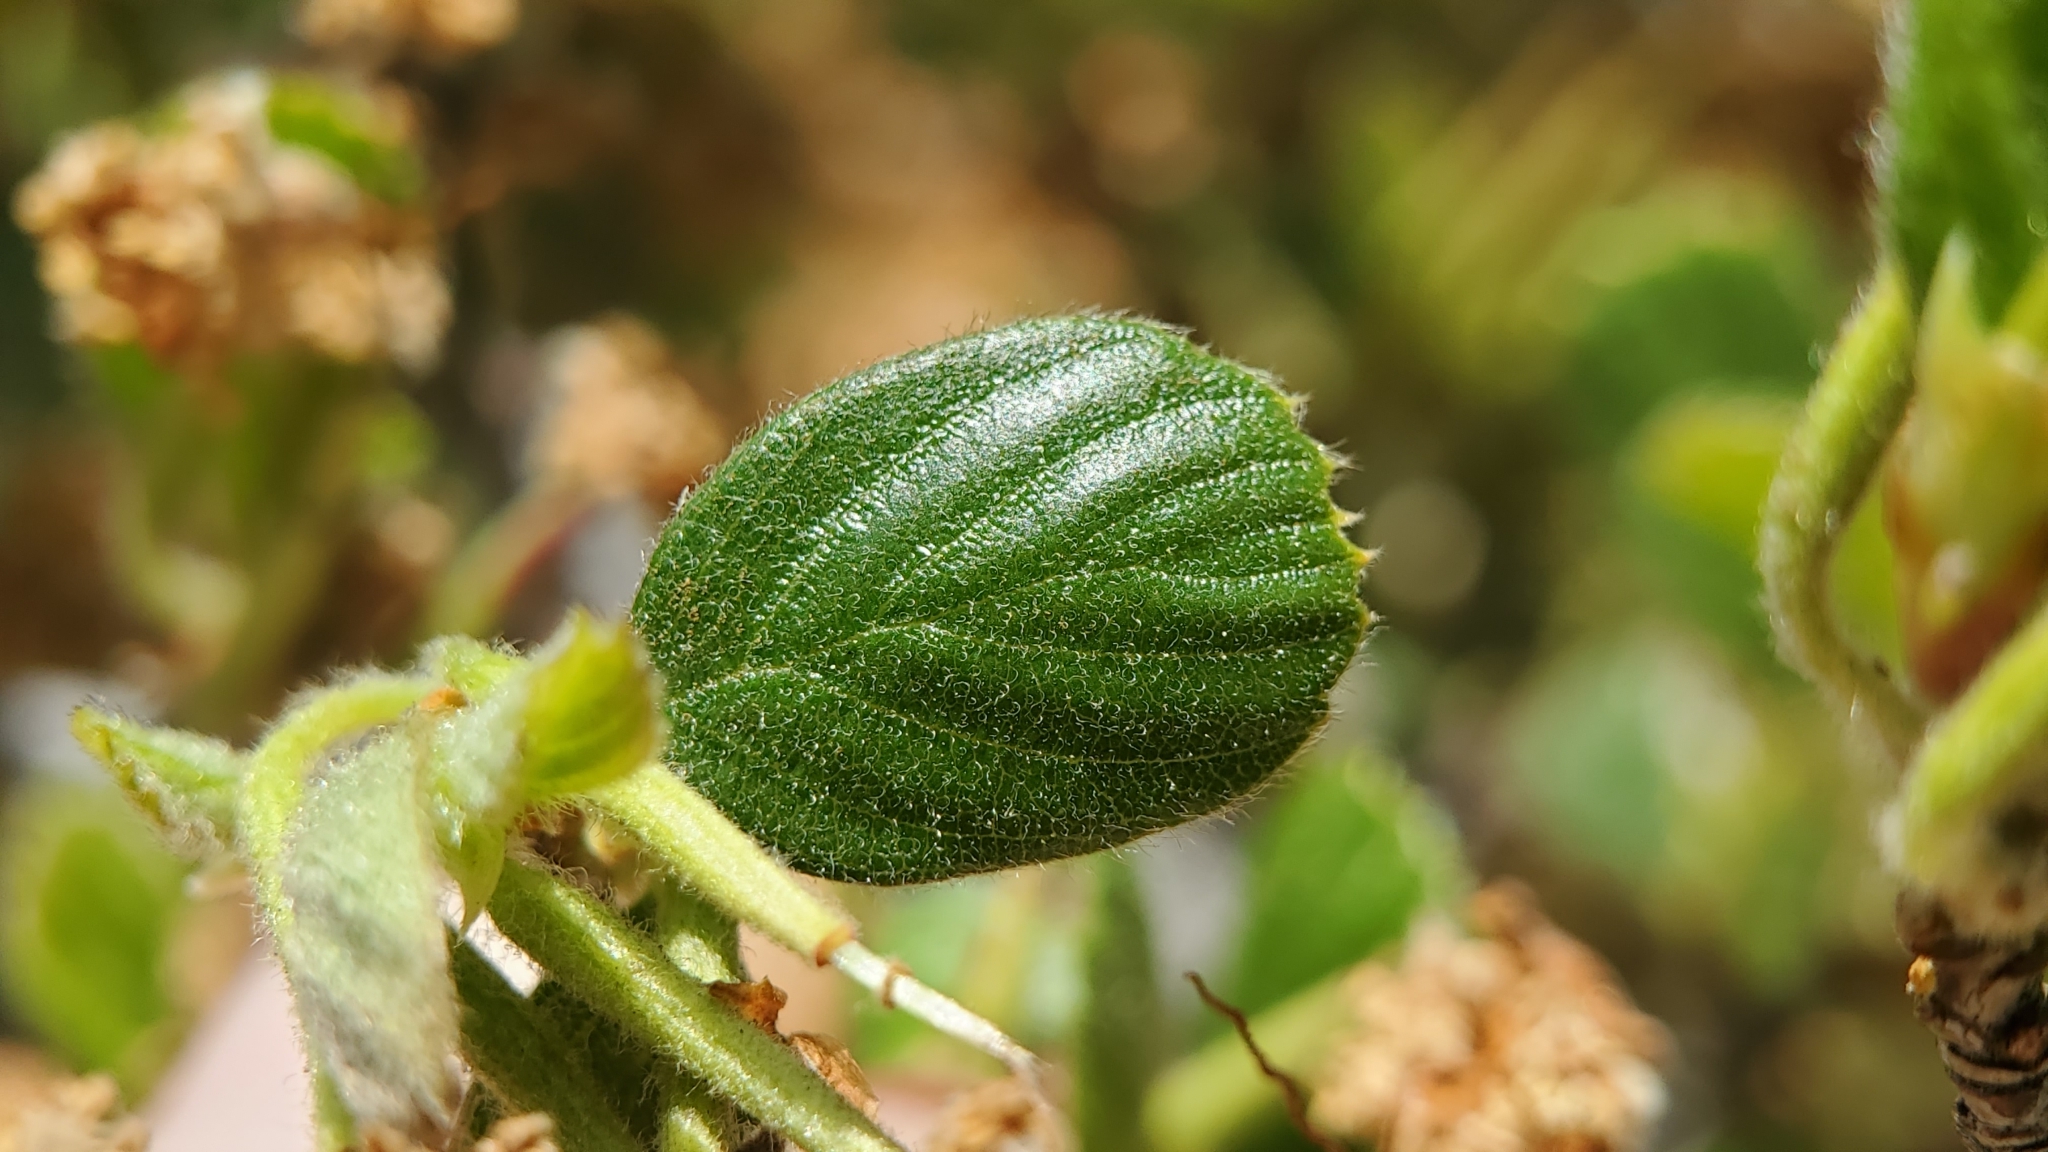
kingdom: Plantae
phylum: Tracheophyta
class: Magnoliopsida
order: Rosales
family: Rosaceae
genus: Cercocarpus
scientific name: Cercocarpus betuloides
